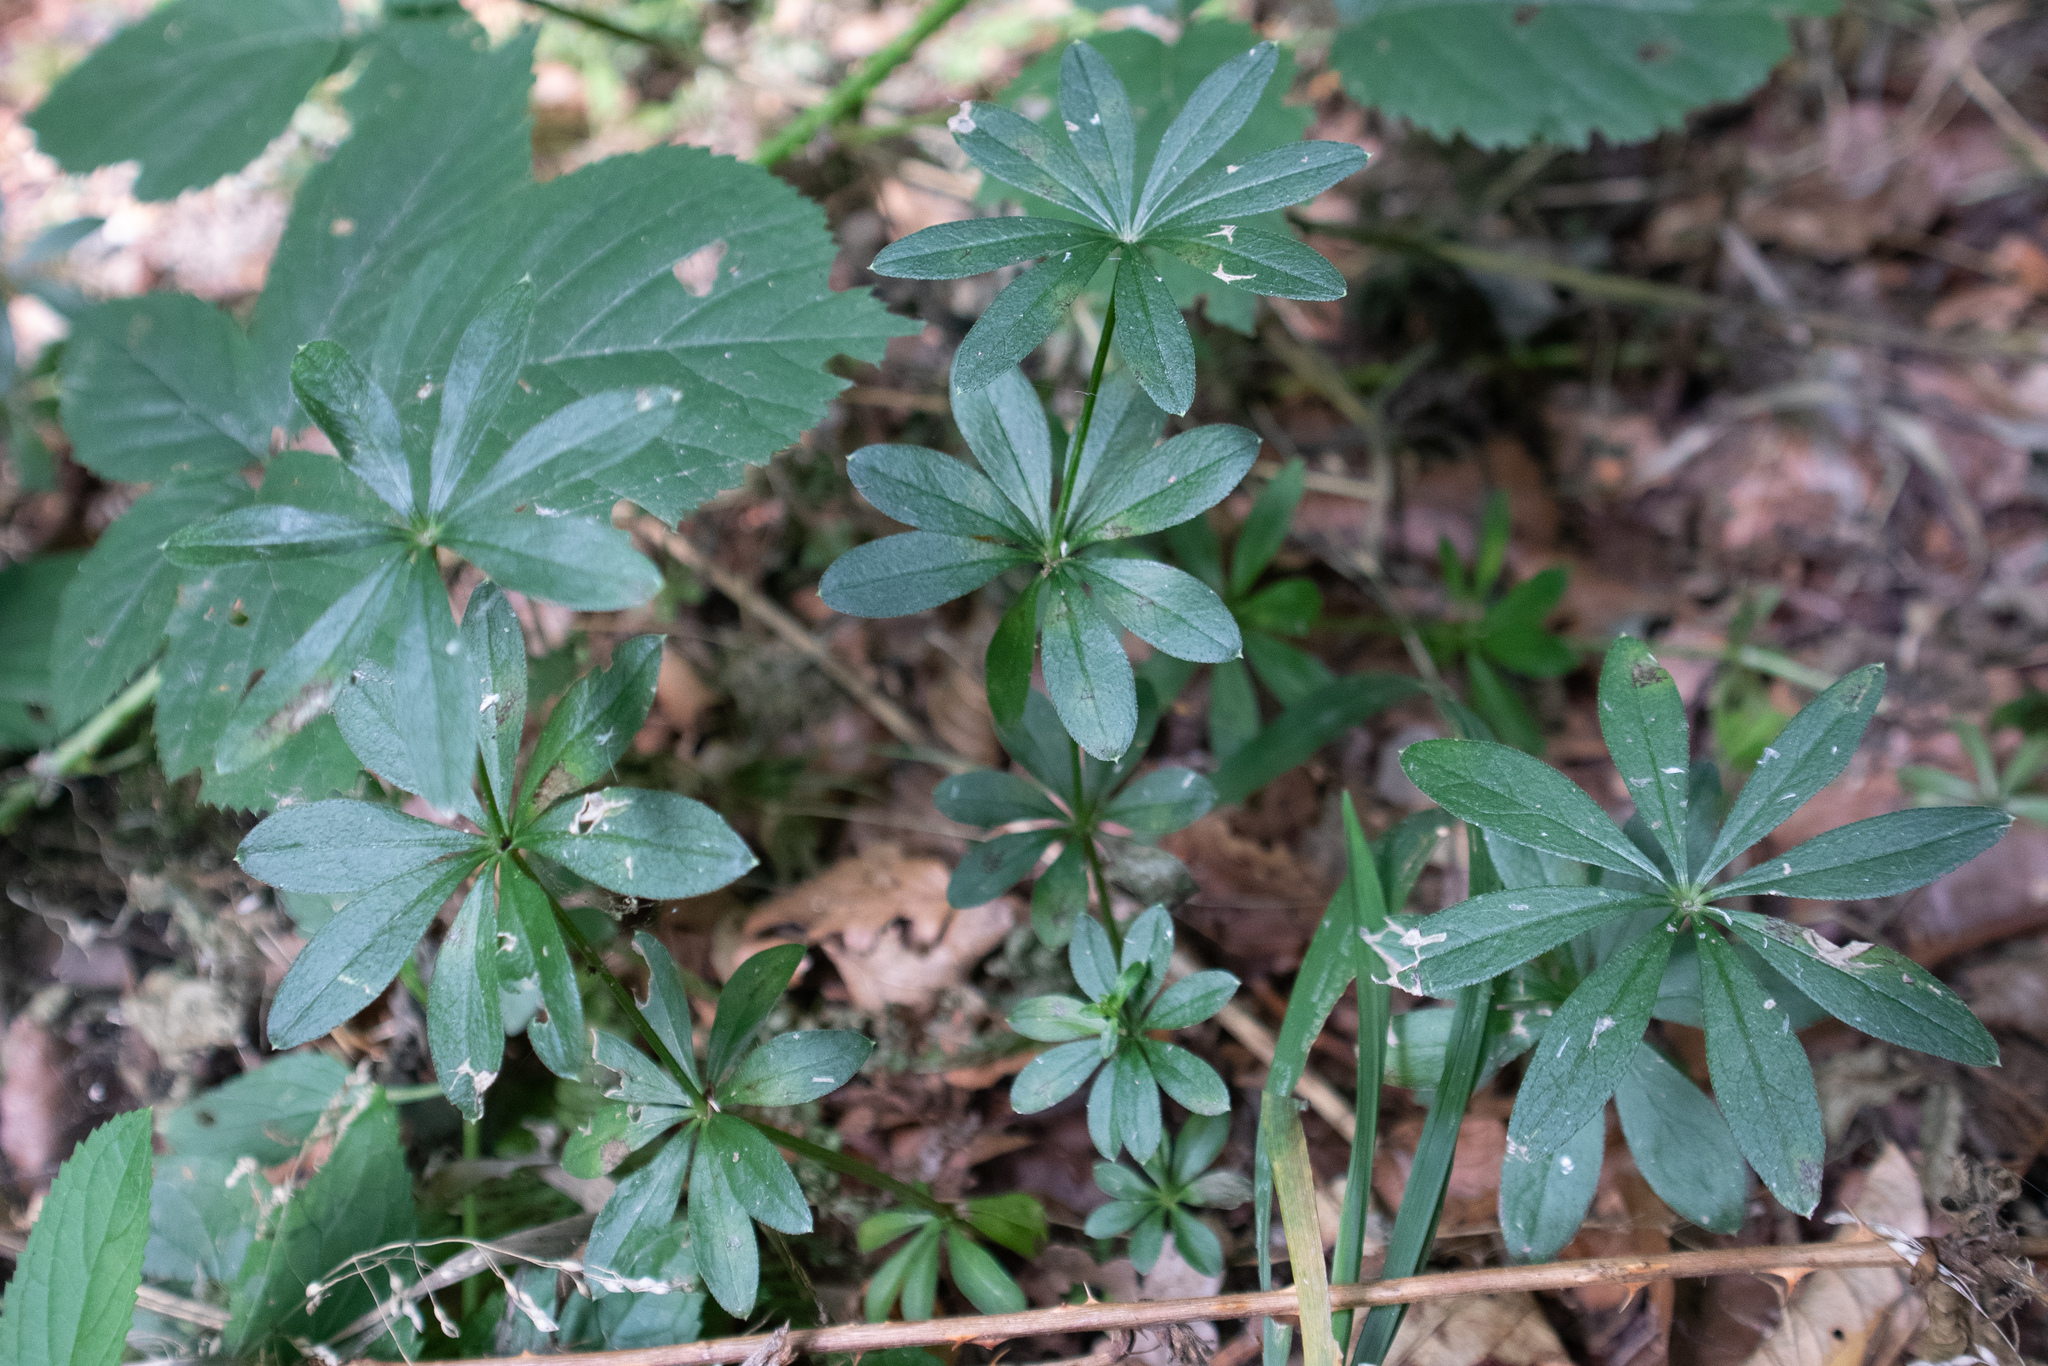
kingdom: Plantae
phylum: Tracheophyta
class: Magnoliopsida
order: Gentianales
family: Rubiaceae
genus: Galium
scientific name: Galium odoratum
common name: Sweet woodruff
